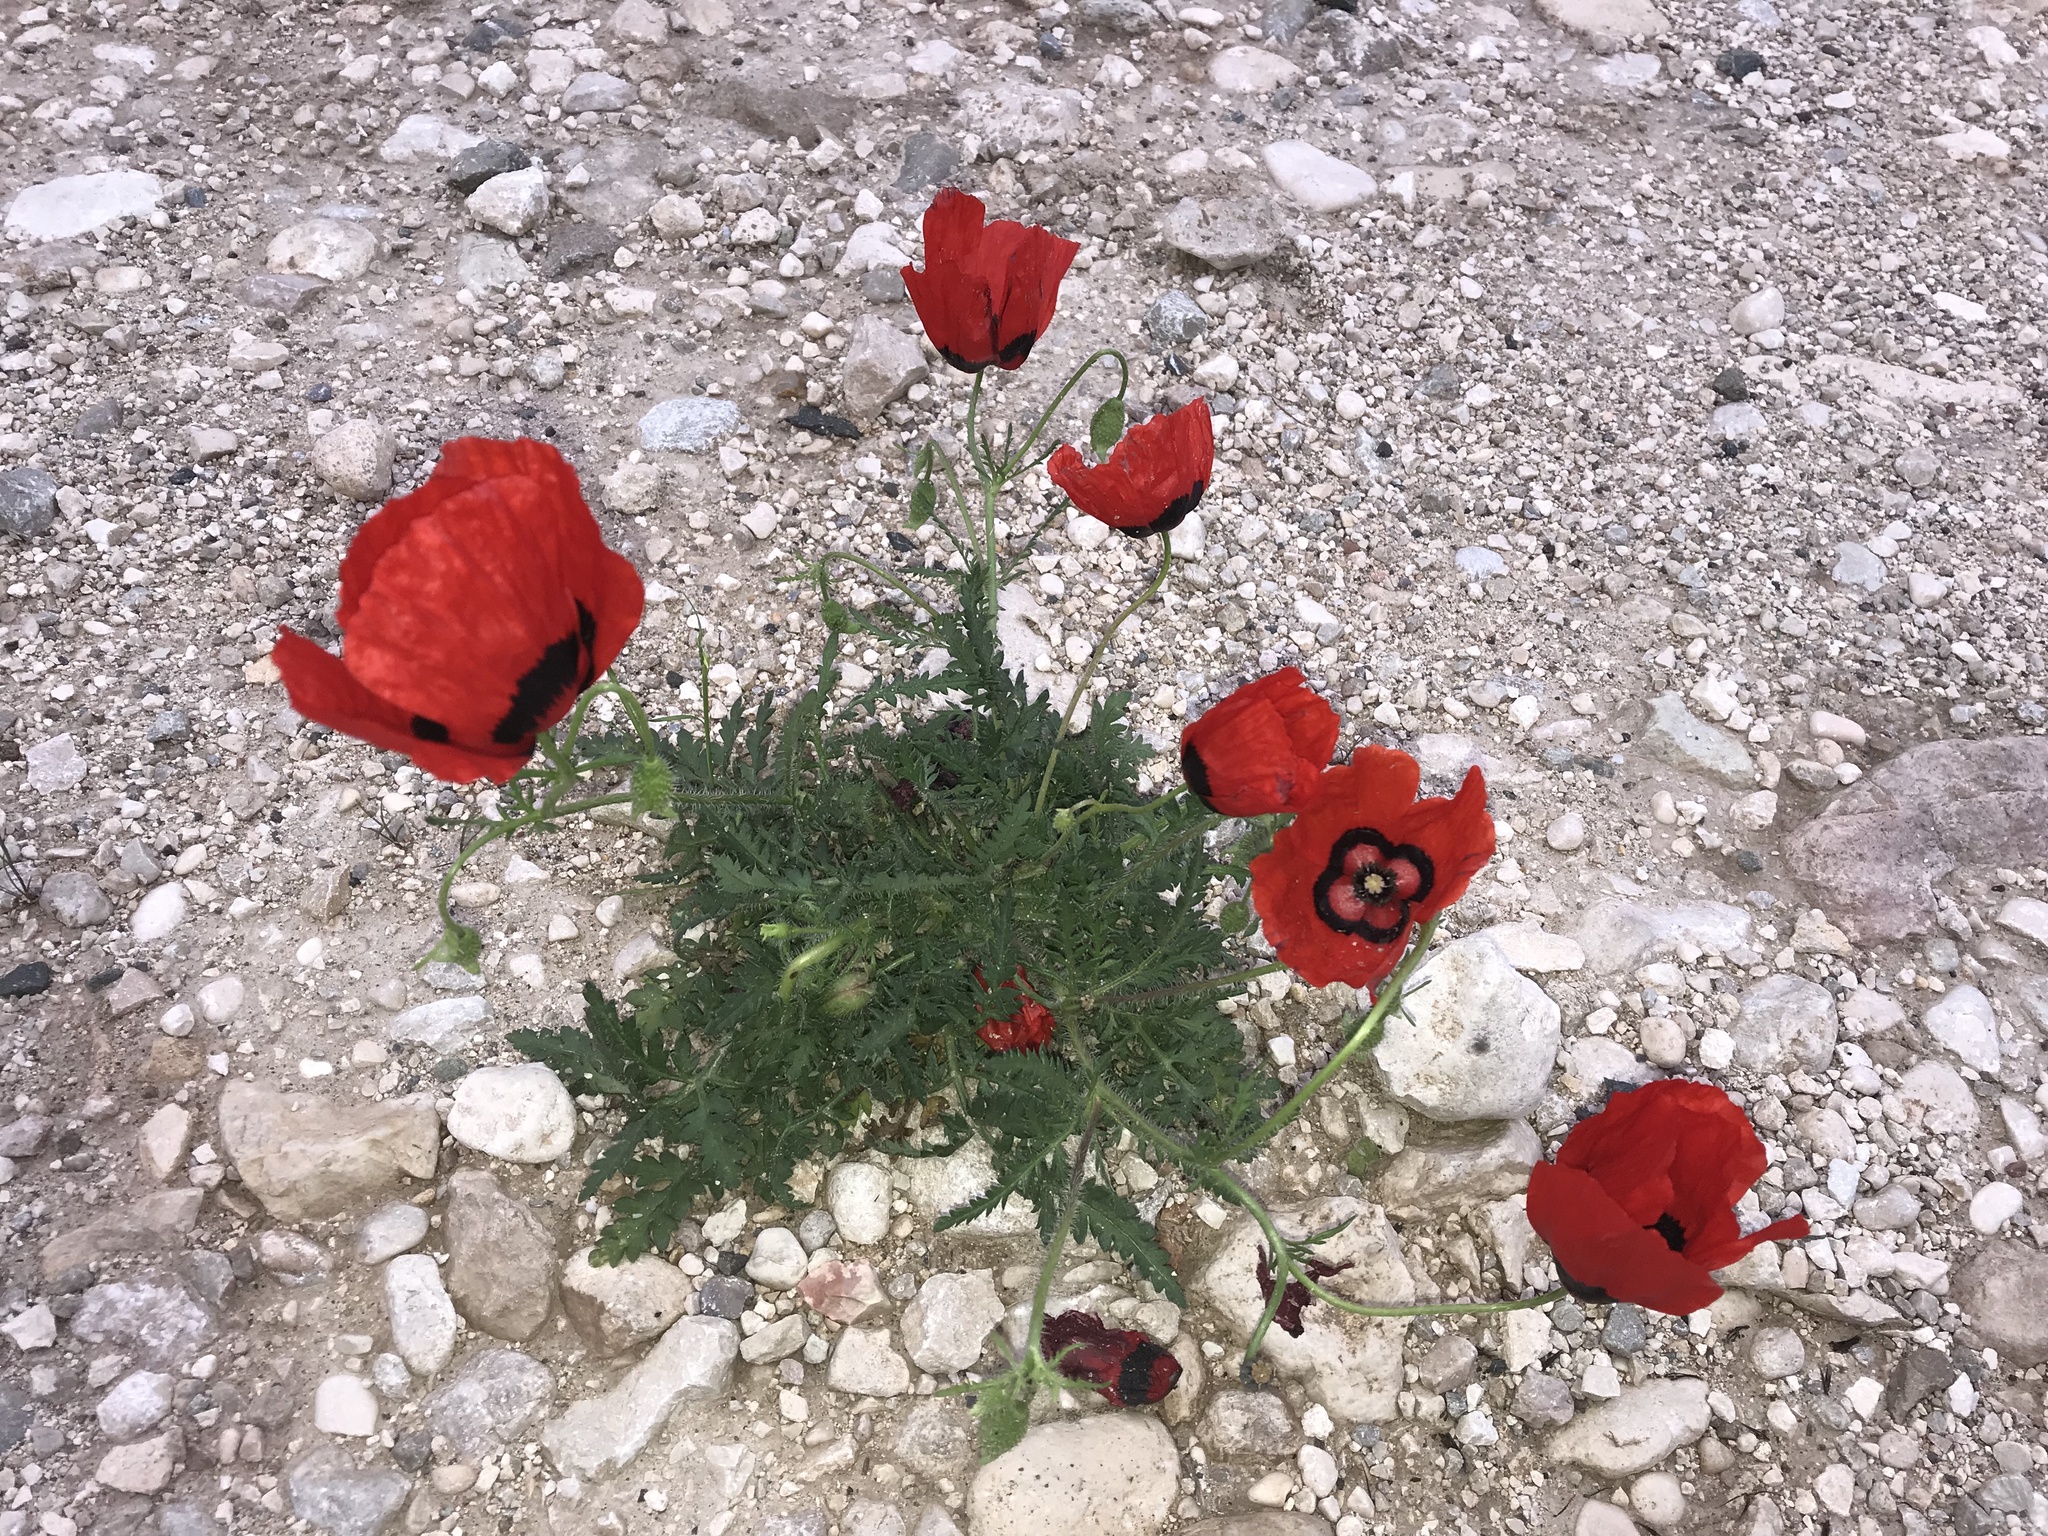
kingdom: Plantae
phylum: Tracheophyta
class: Magnoliopsida
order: Ranunculales
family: Papaveraceae
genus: Roemeria
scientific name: Roemeria pavonina
